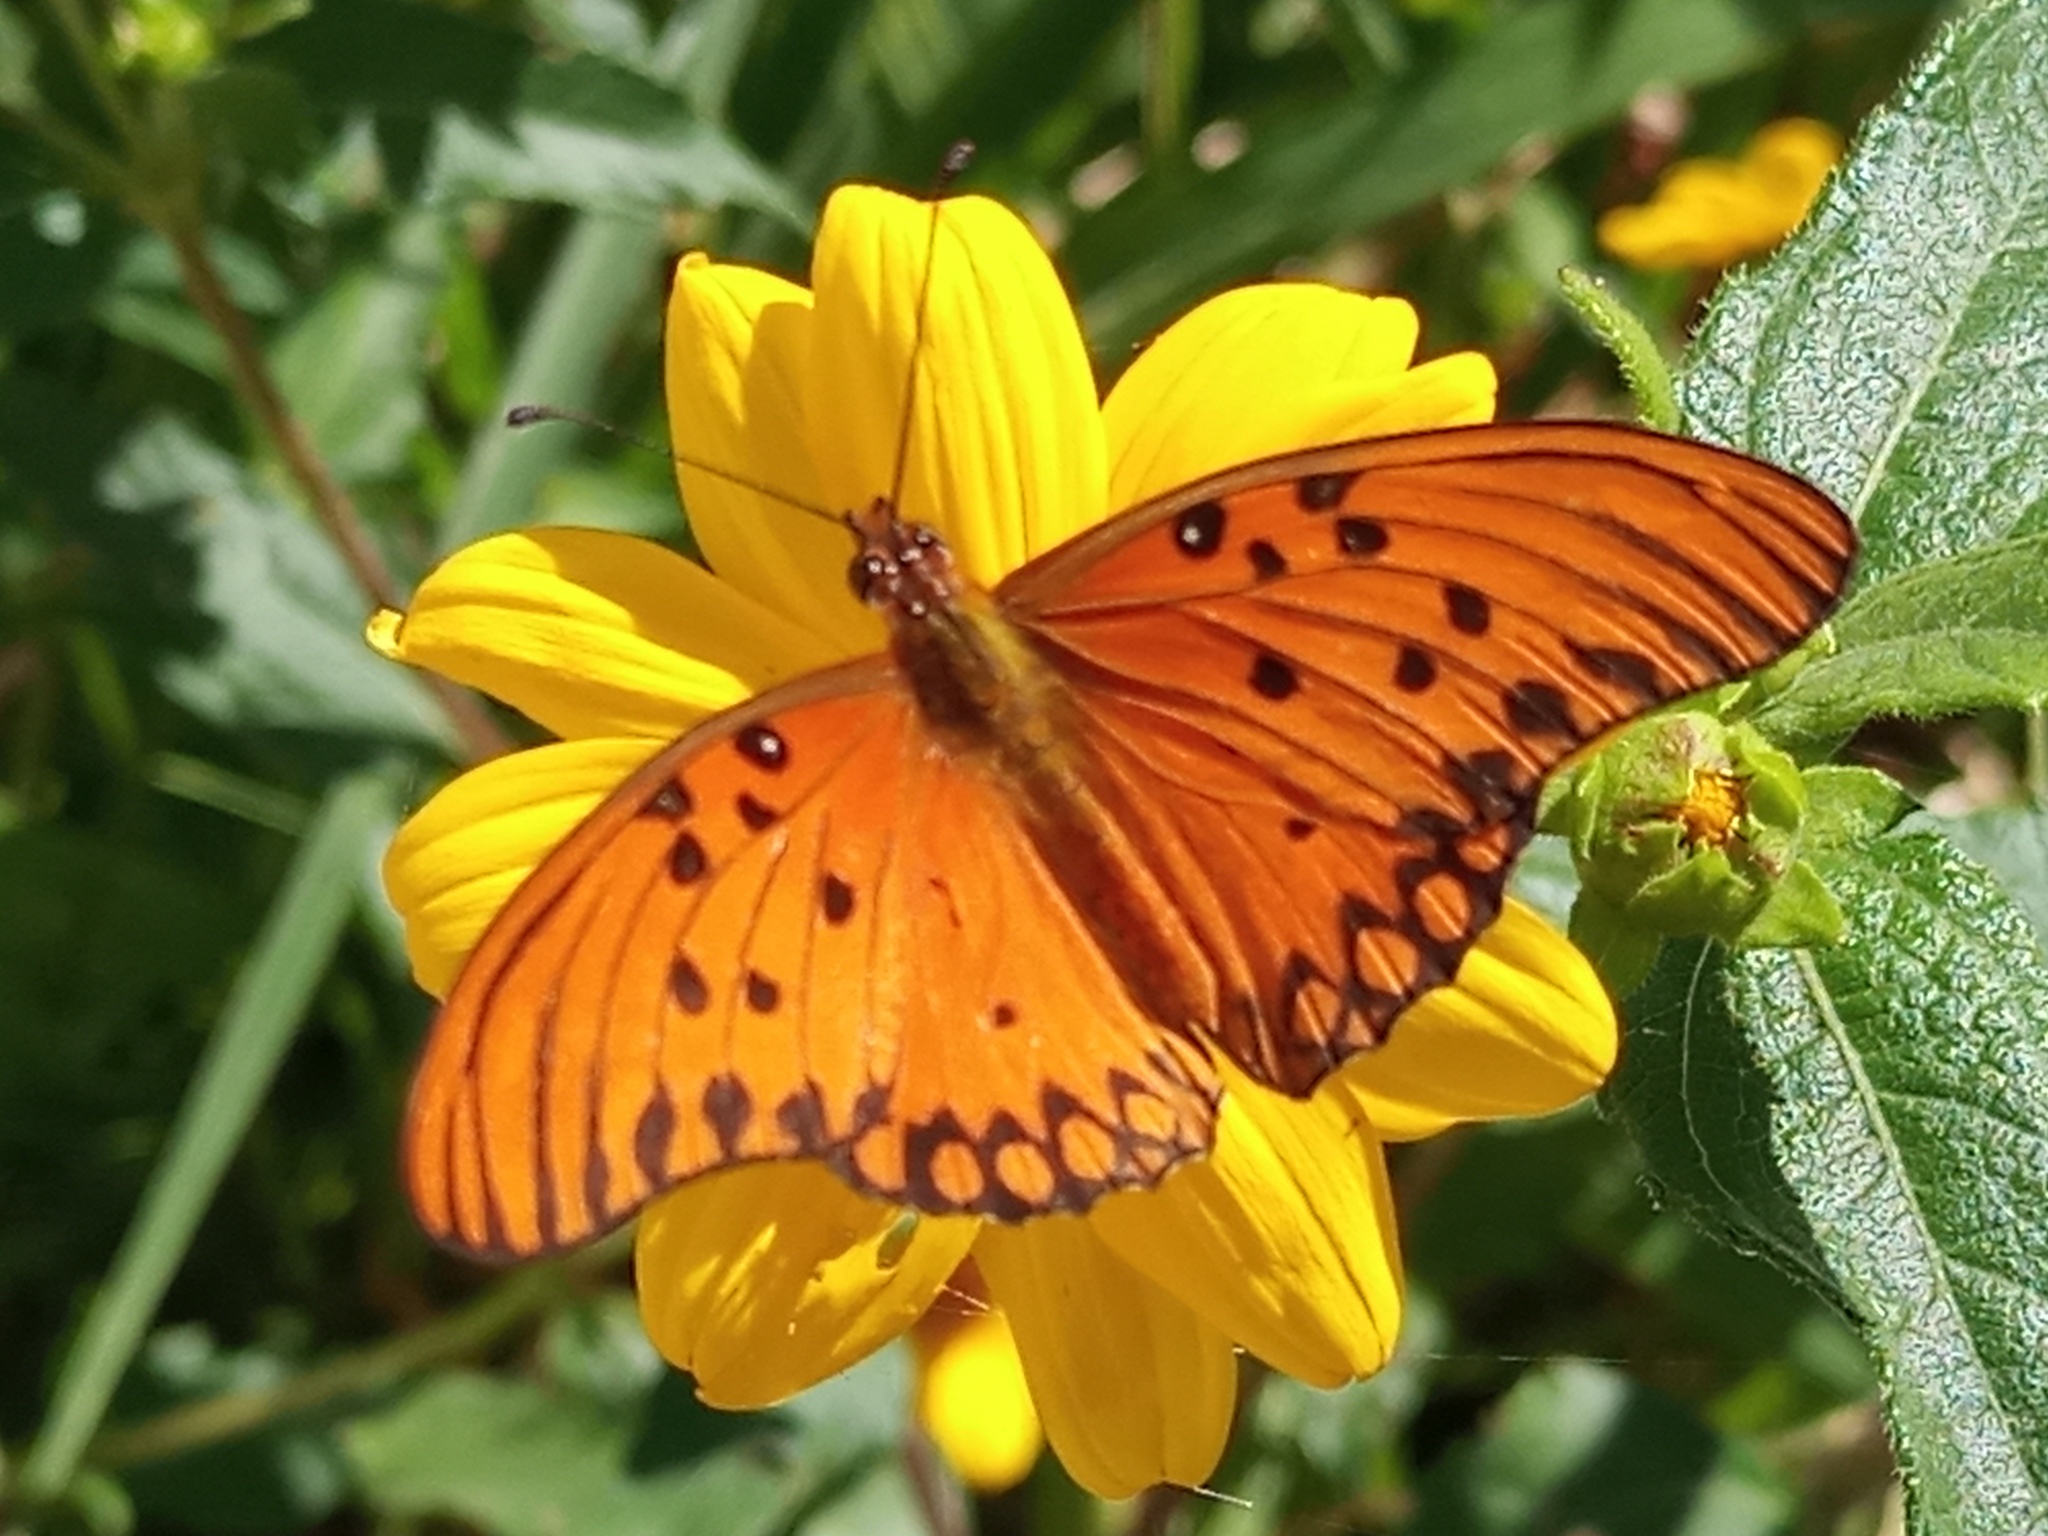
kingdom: Animalia
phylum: Arthropoda
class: Insecta
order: Lepidoptera
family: Nymphalidae
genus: Dione
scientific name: Dione vanillae
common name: Gulf fritillary
